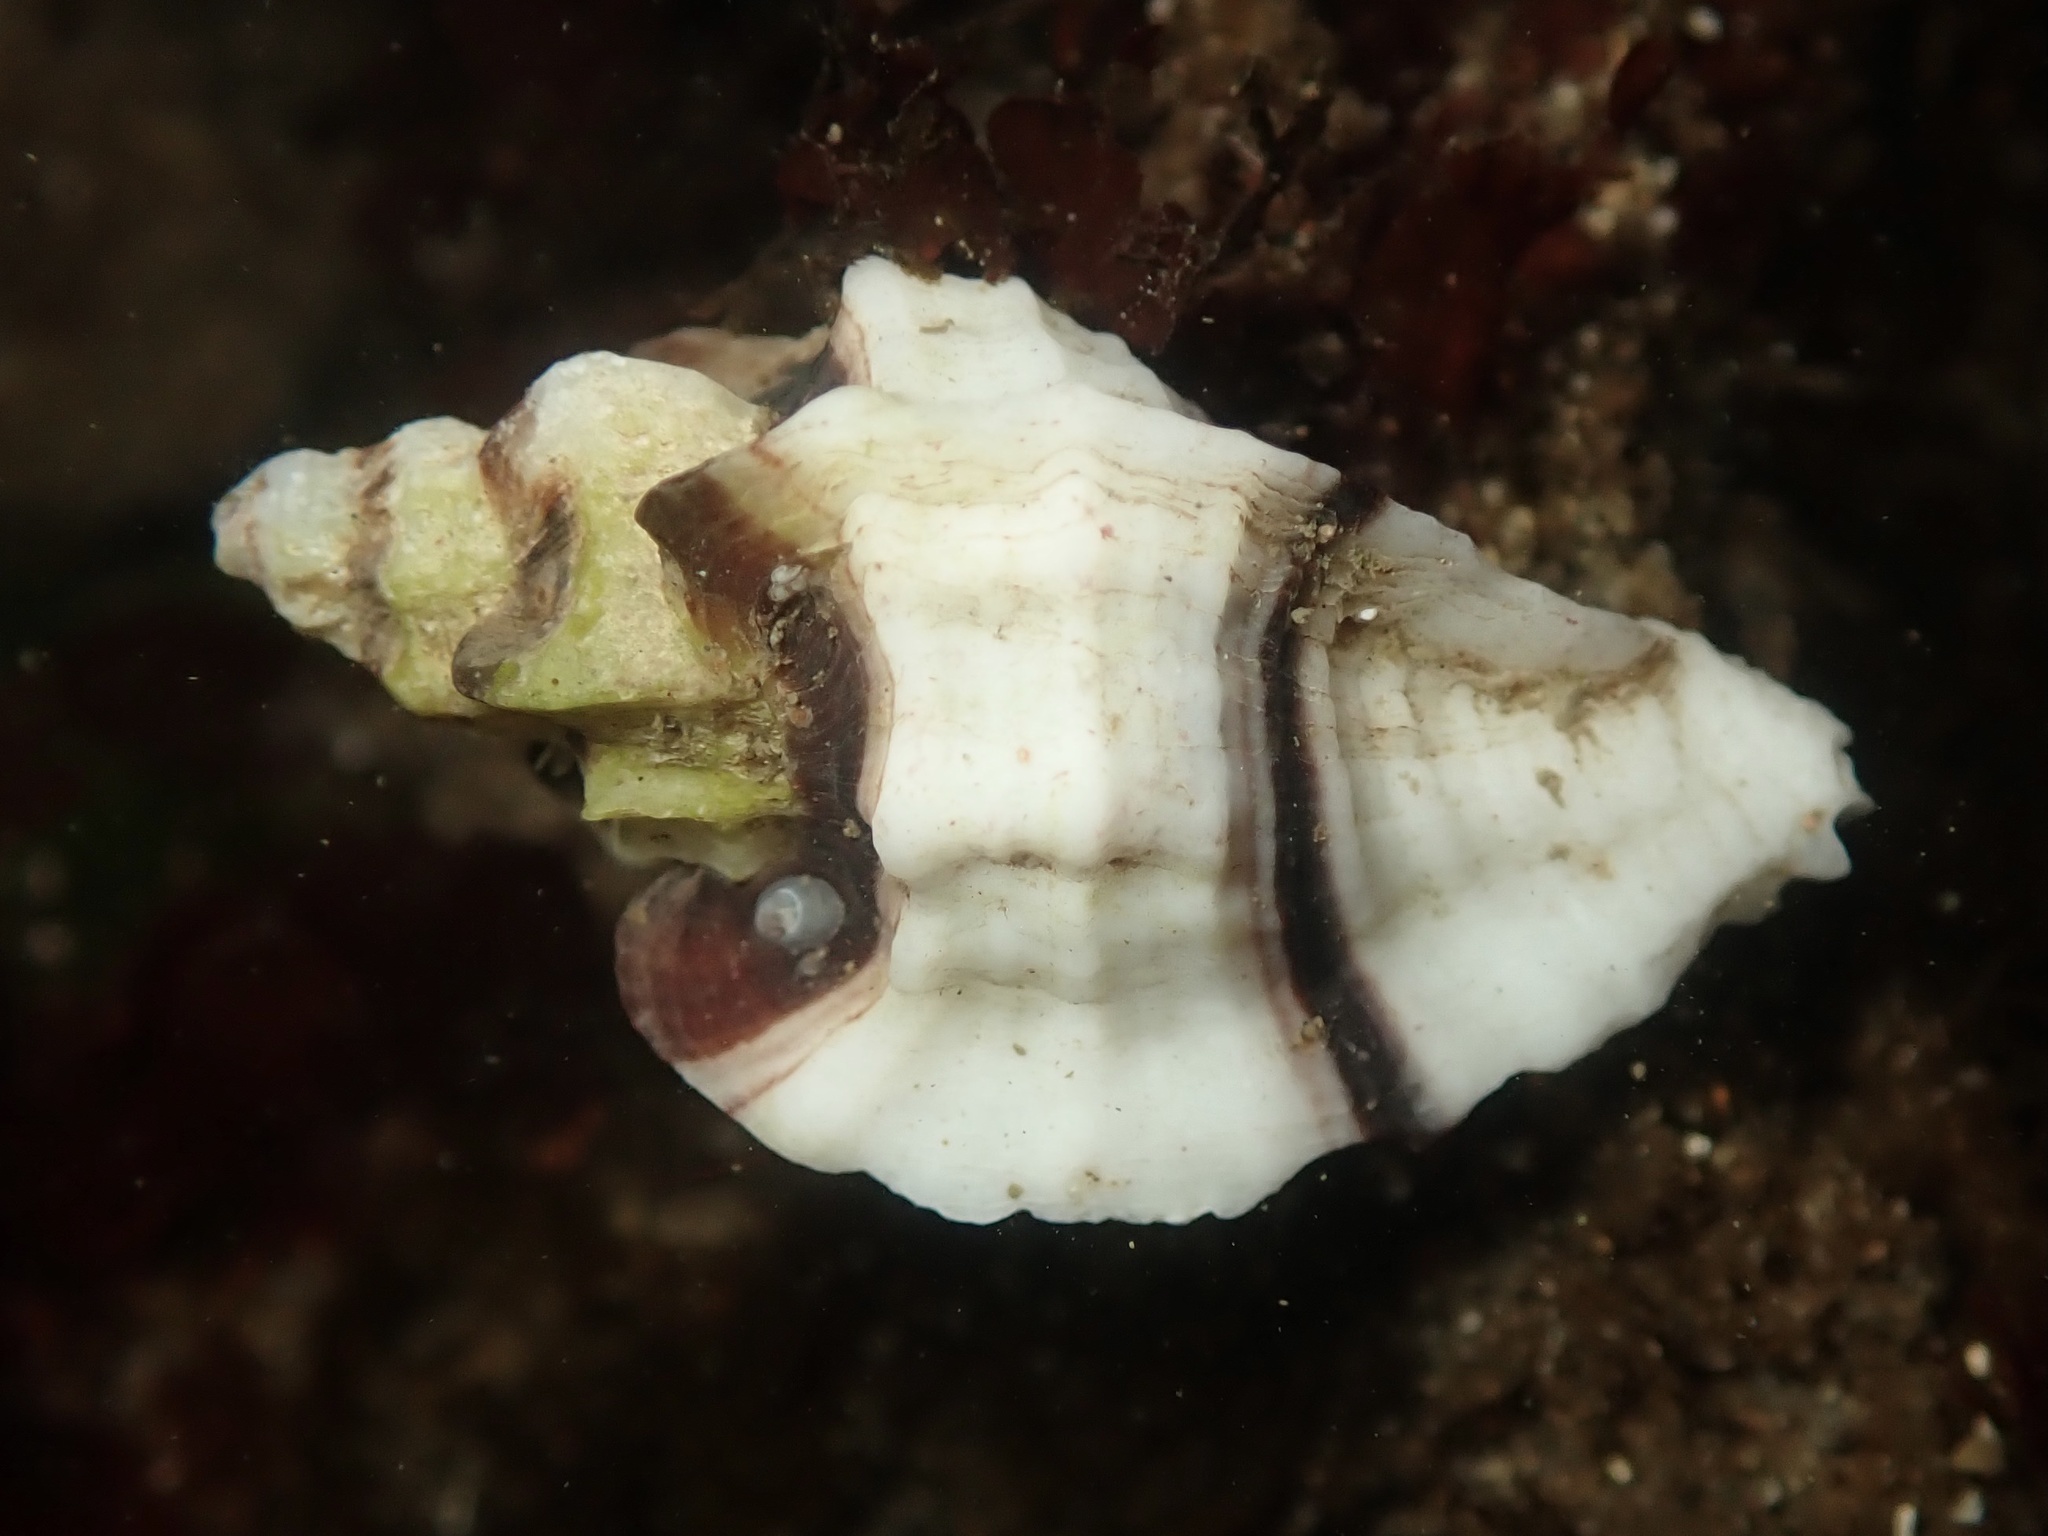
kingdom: Animalia
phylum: Mollusca
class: Gastropoda
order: Neogastropoda
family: Muricidae
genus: Ceratostoma
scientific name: Ceratostoma foliatum
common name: Foliate thorn purpura
